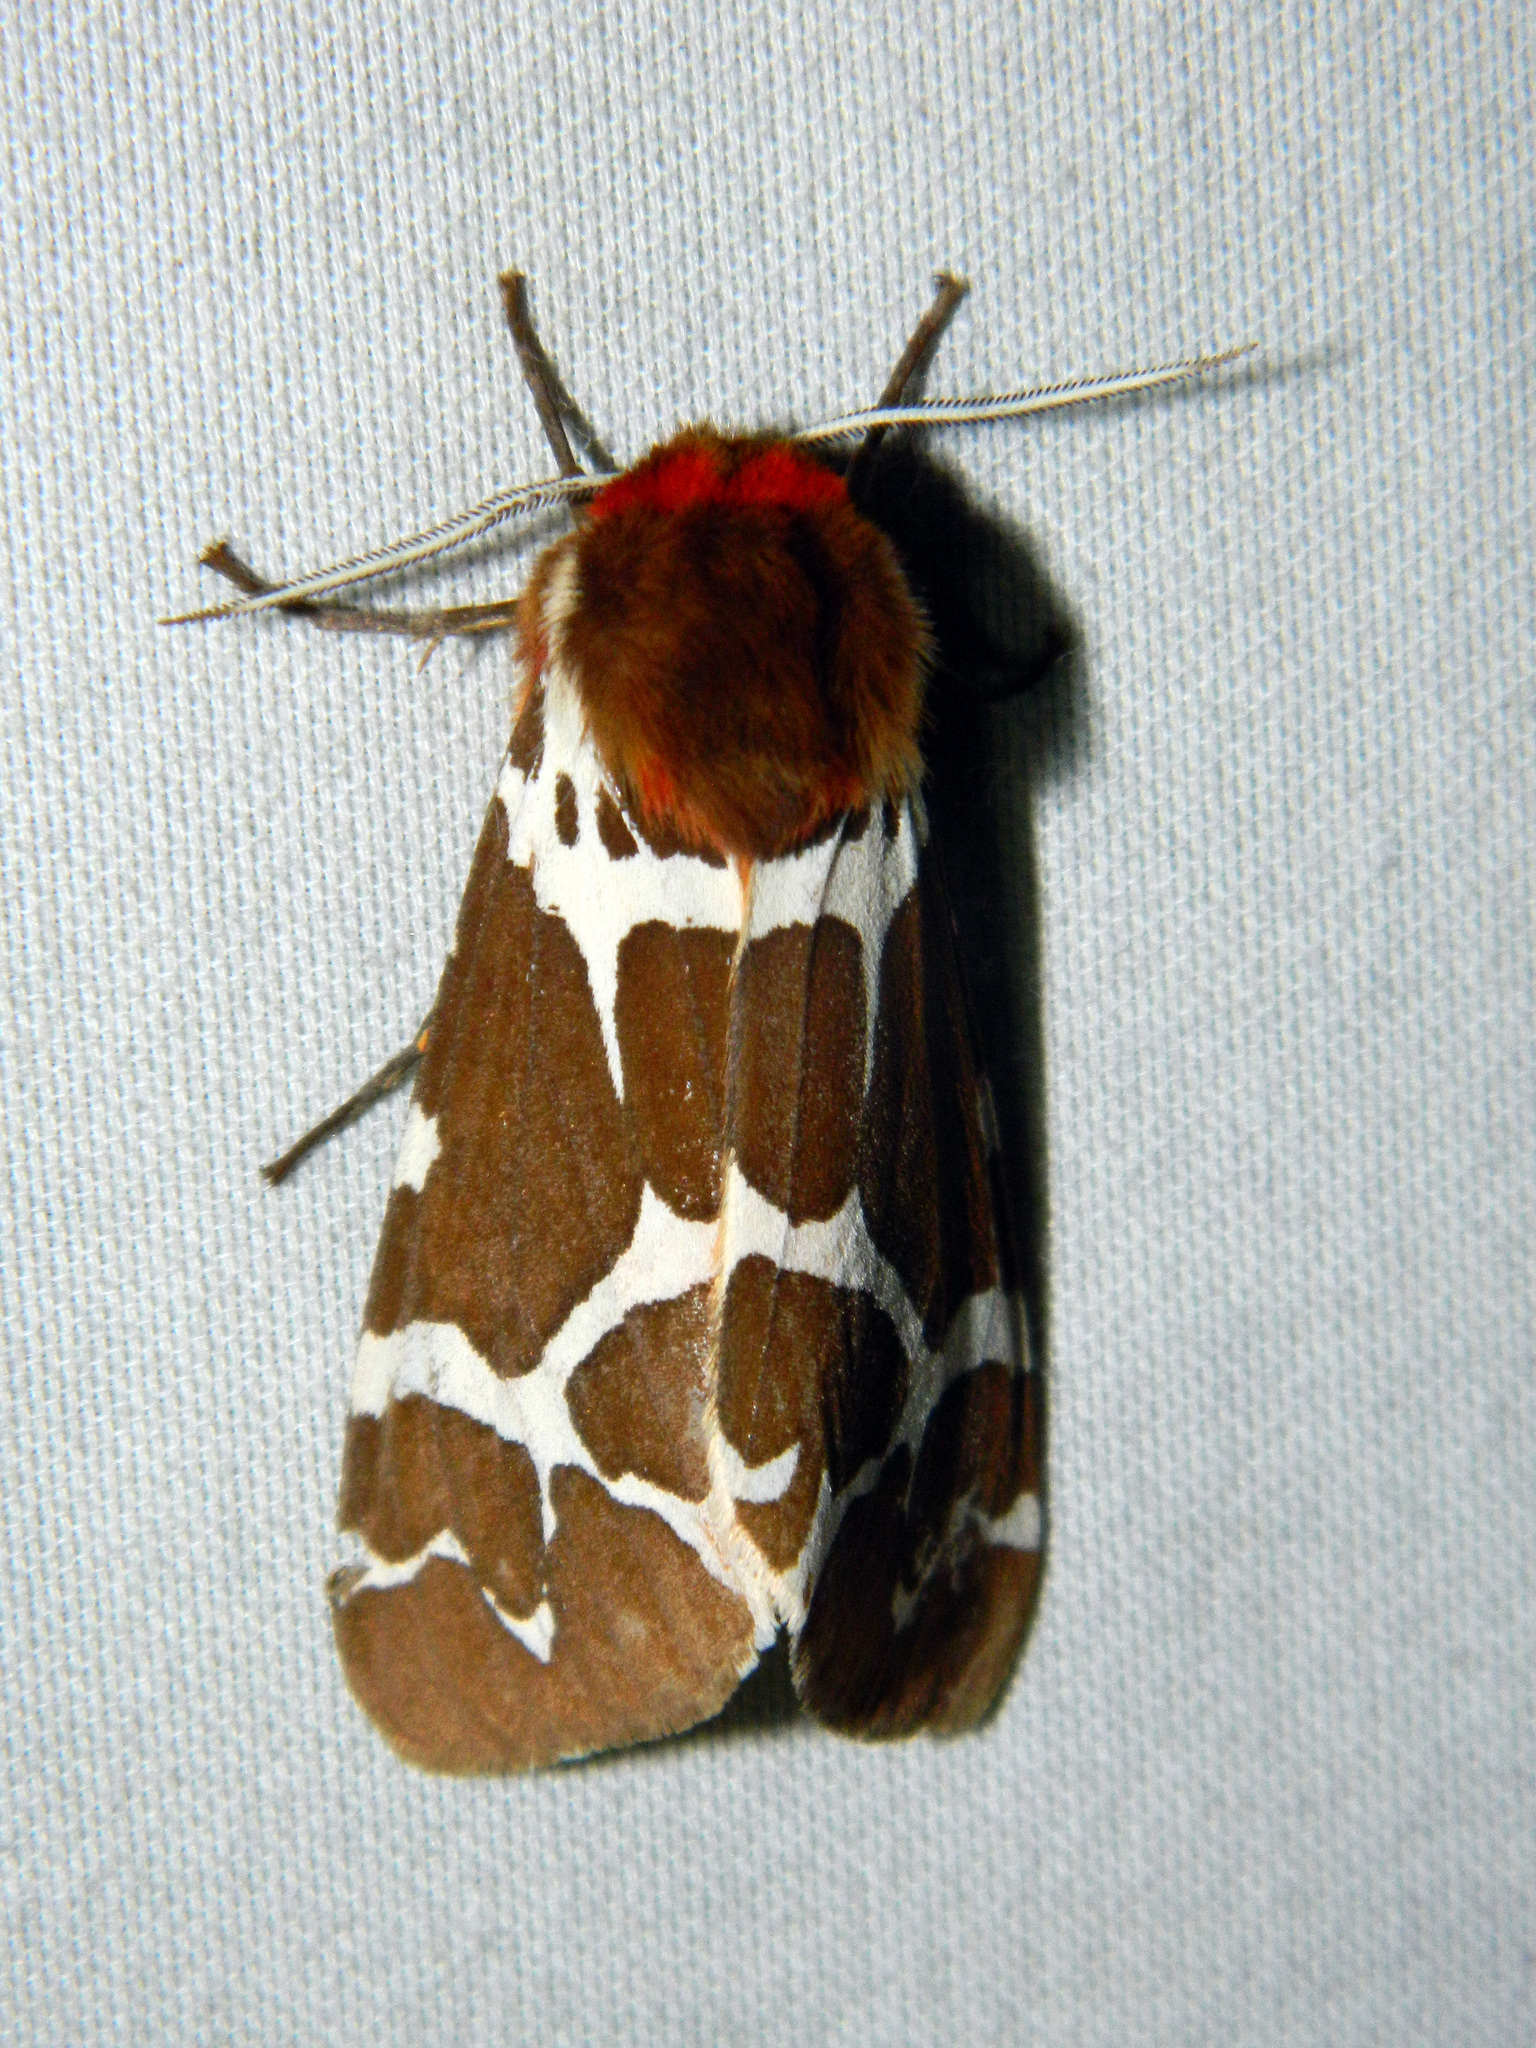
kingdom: Animalia
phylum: Arthropoda
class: Insecta
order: Lepidoptera
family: Erebidae
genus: Arctia
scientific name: Arctia caja
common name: Garden tiger
